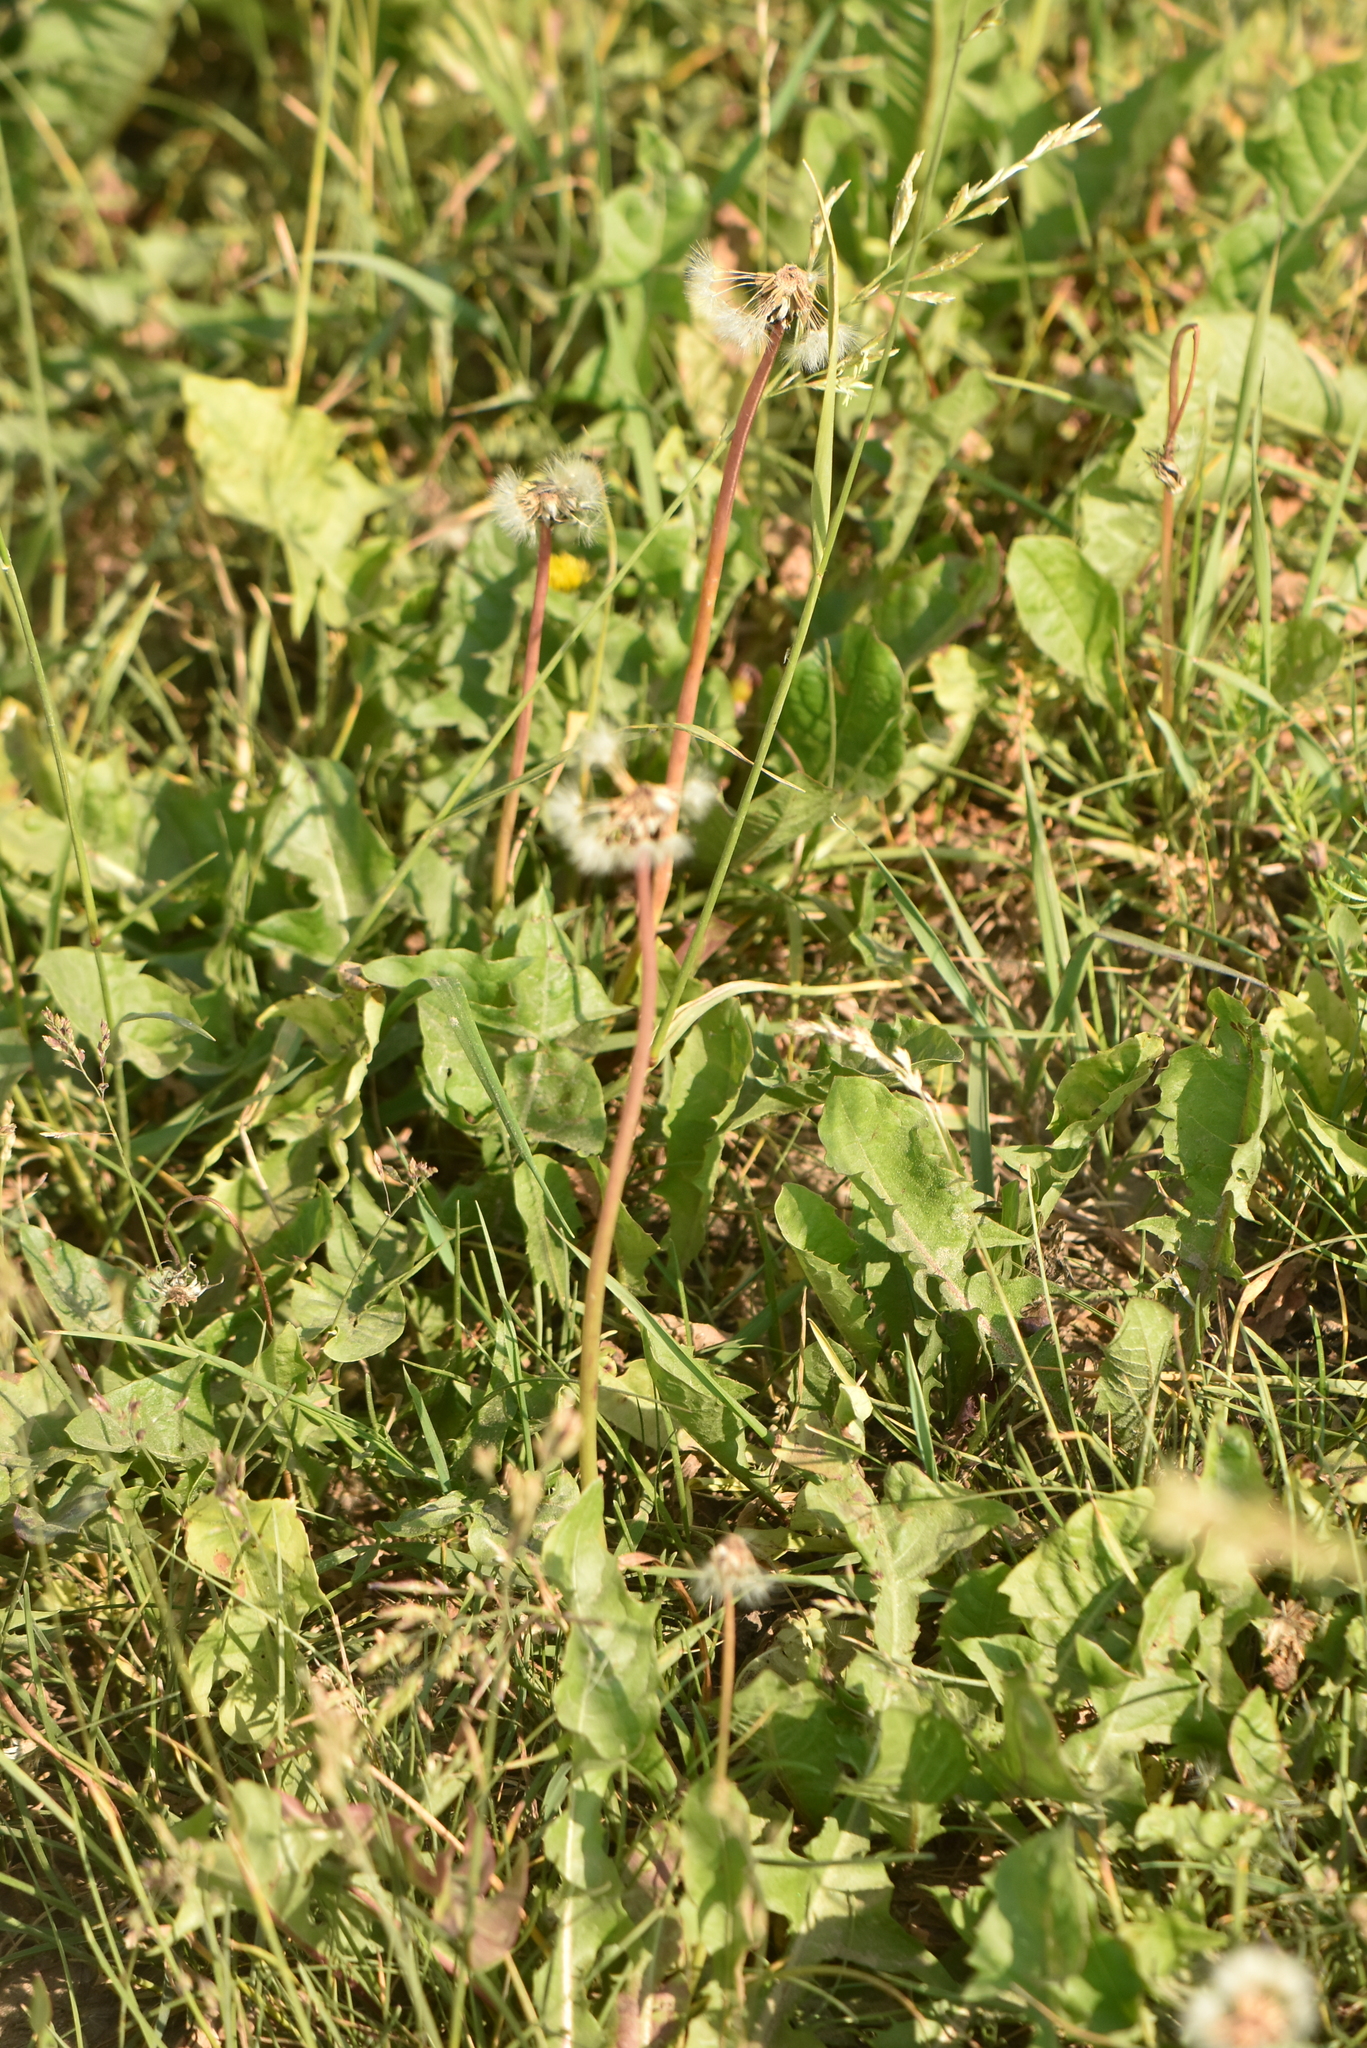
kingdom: Plantae
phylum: Tracheophyta
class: Magnoliopsida
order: Asterales
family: Asteraceae
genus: Taraxacum
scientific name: Taraxacum officinale
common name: Common dandelion
